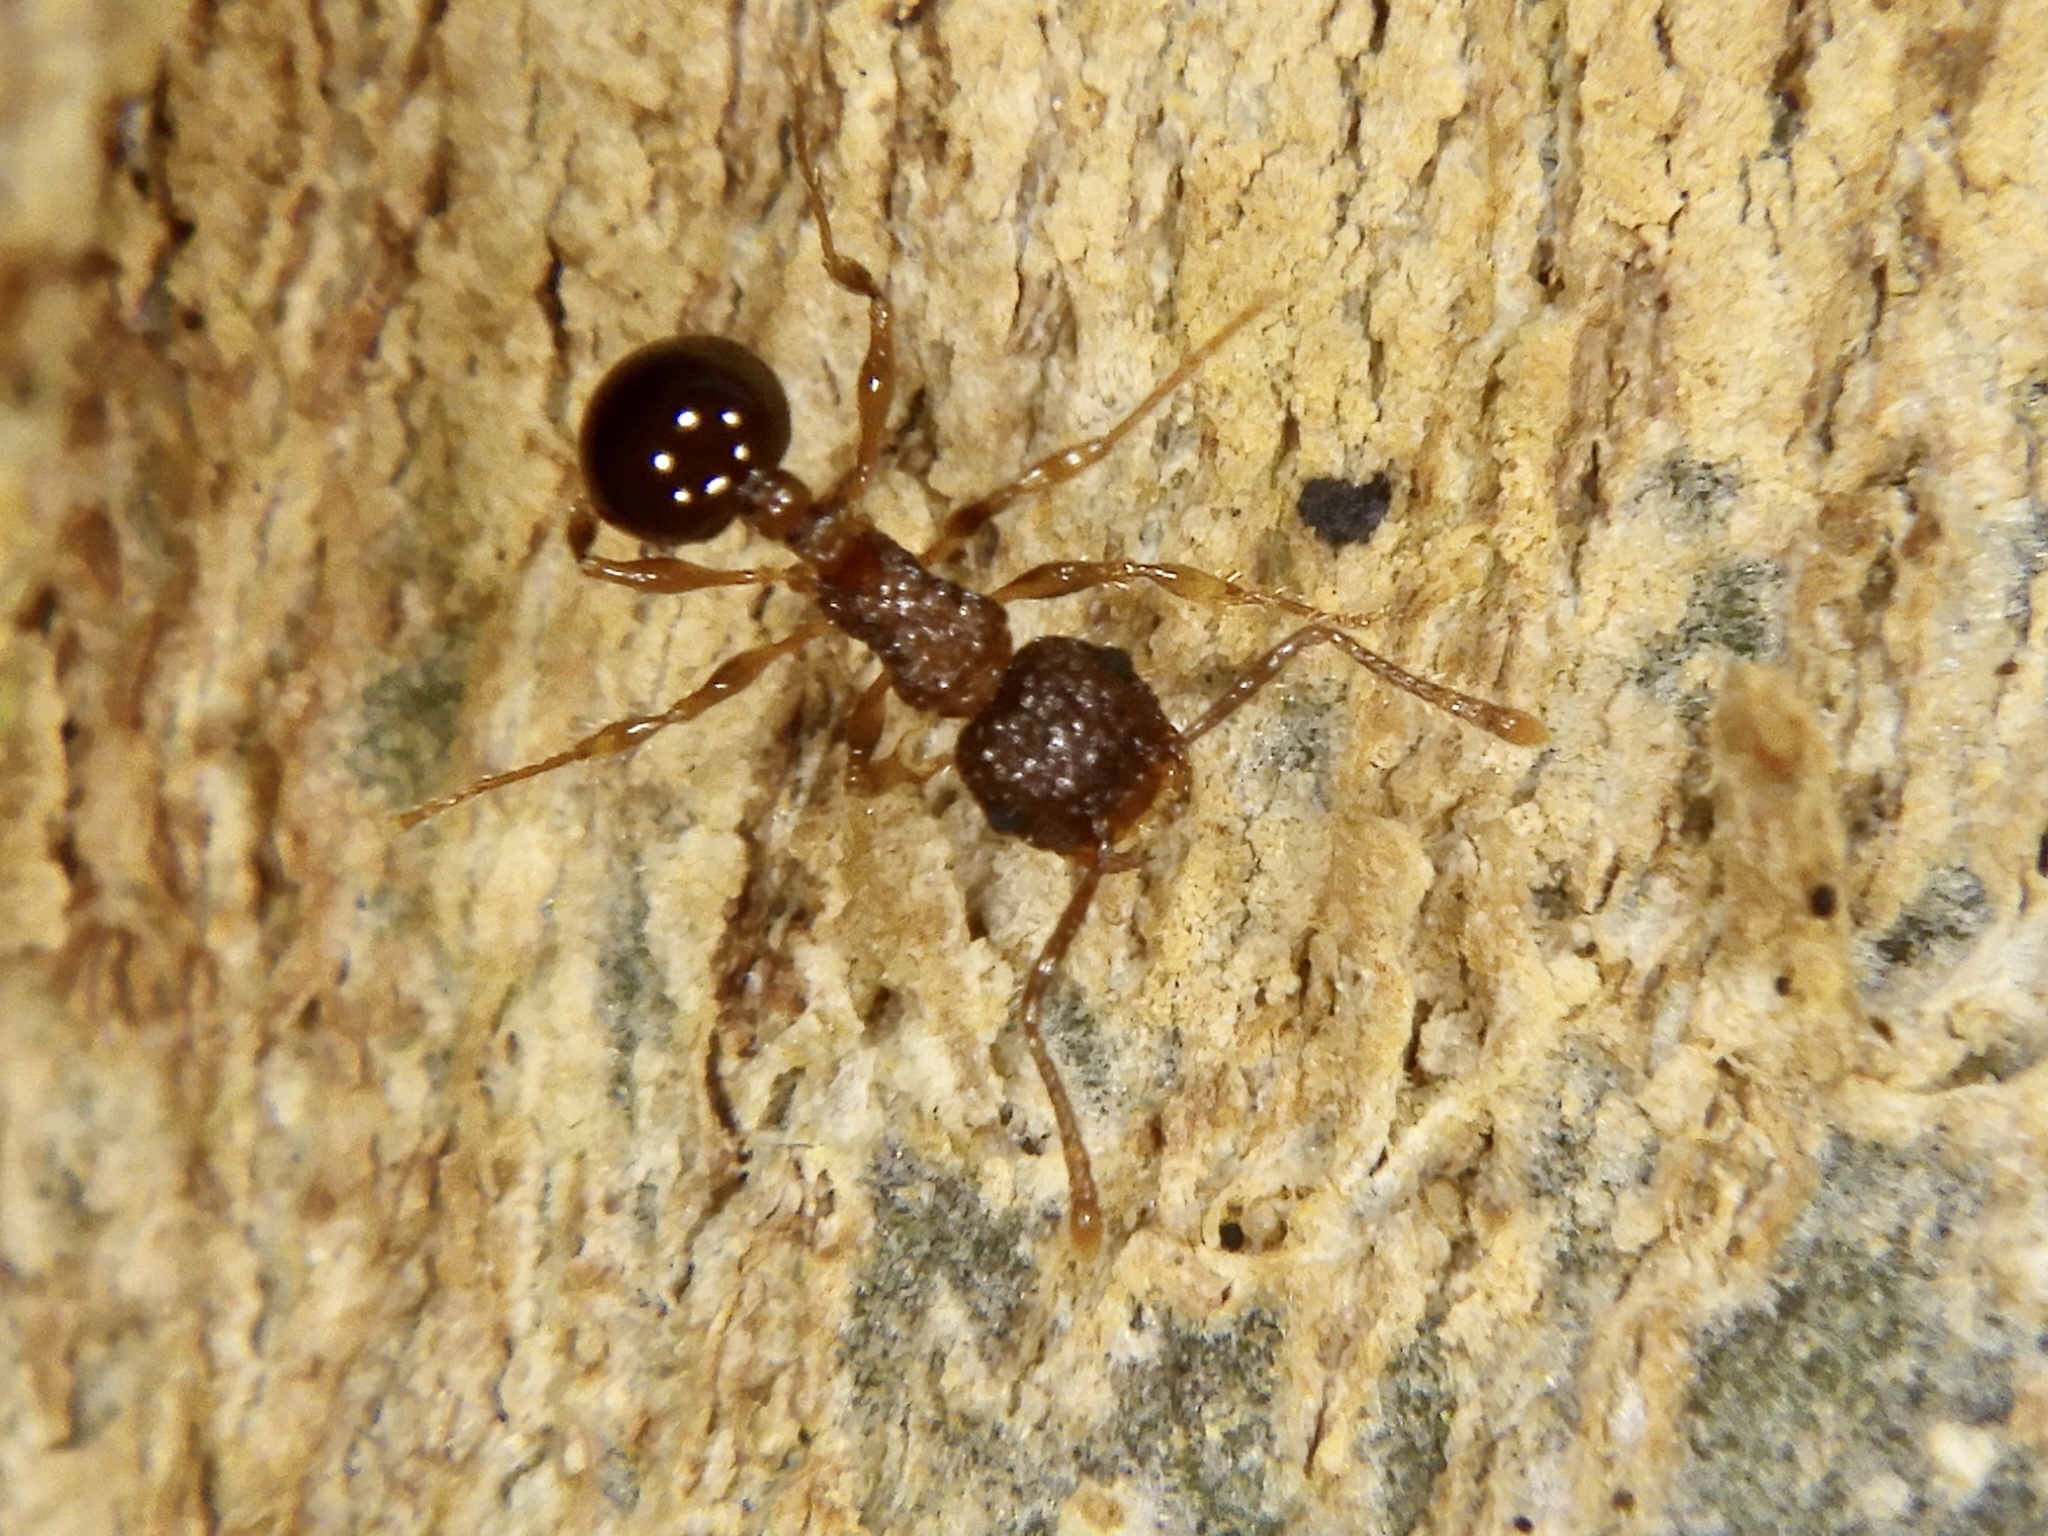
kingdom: Animalia
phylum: Arthropoda
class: Insecta
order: Hymenoptera
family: Formicidae
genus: Pristomyrmex
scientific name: Pristomyrmex punctatus
